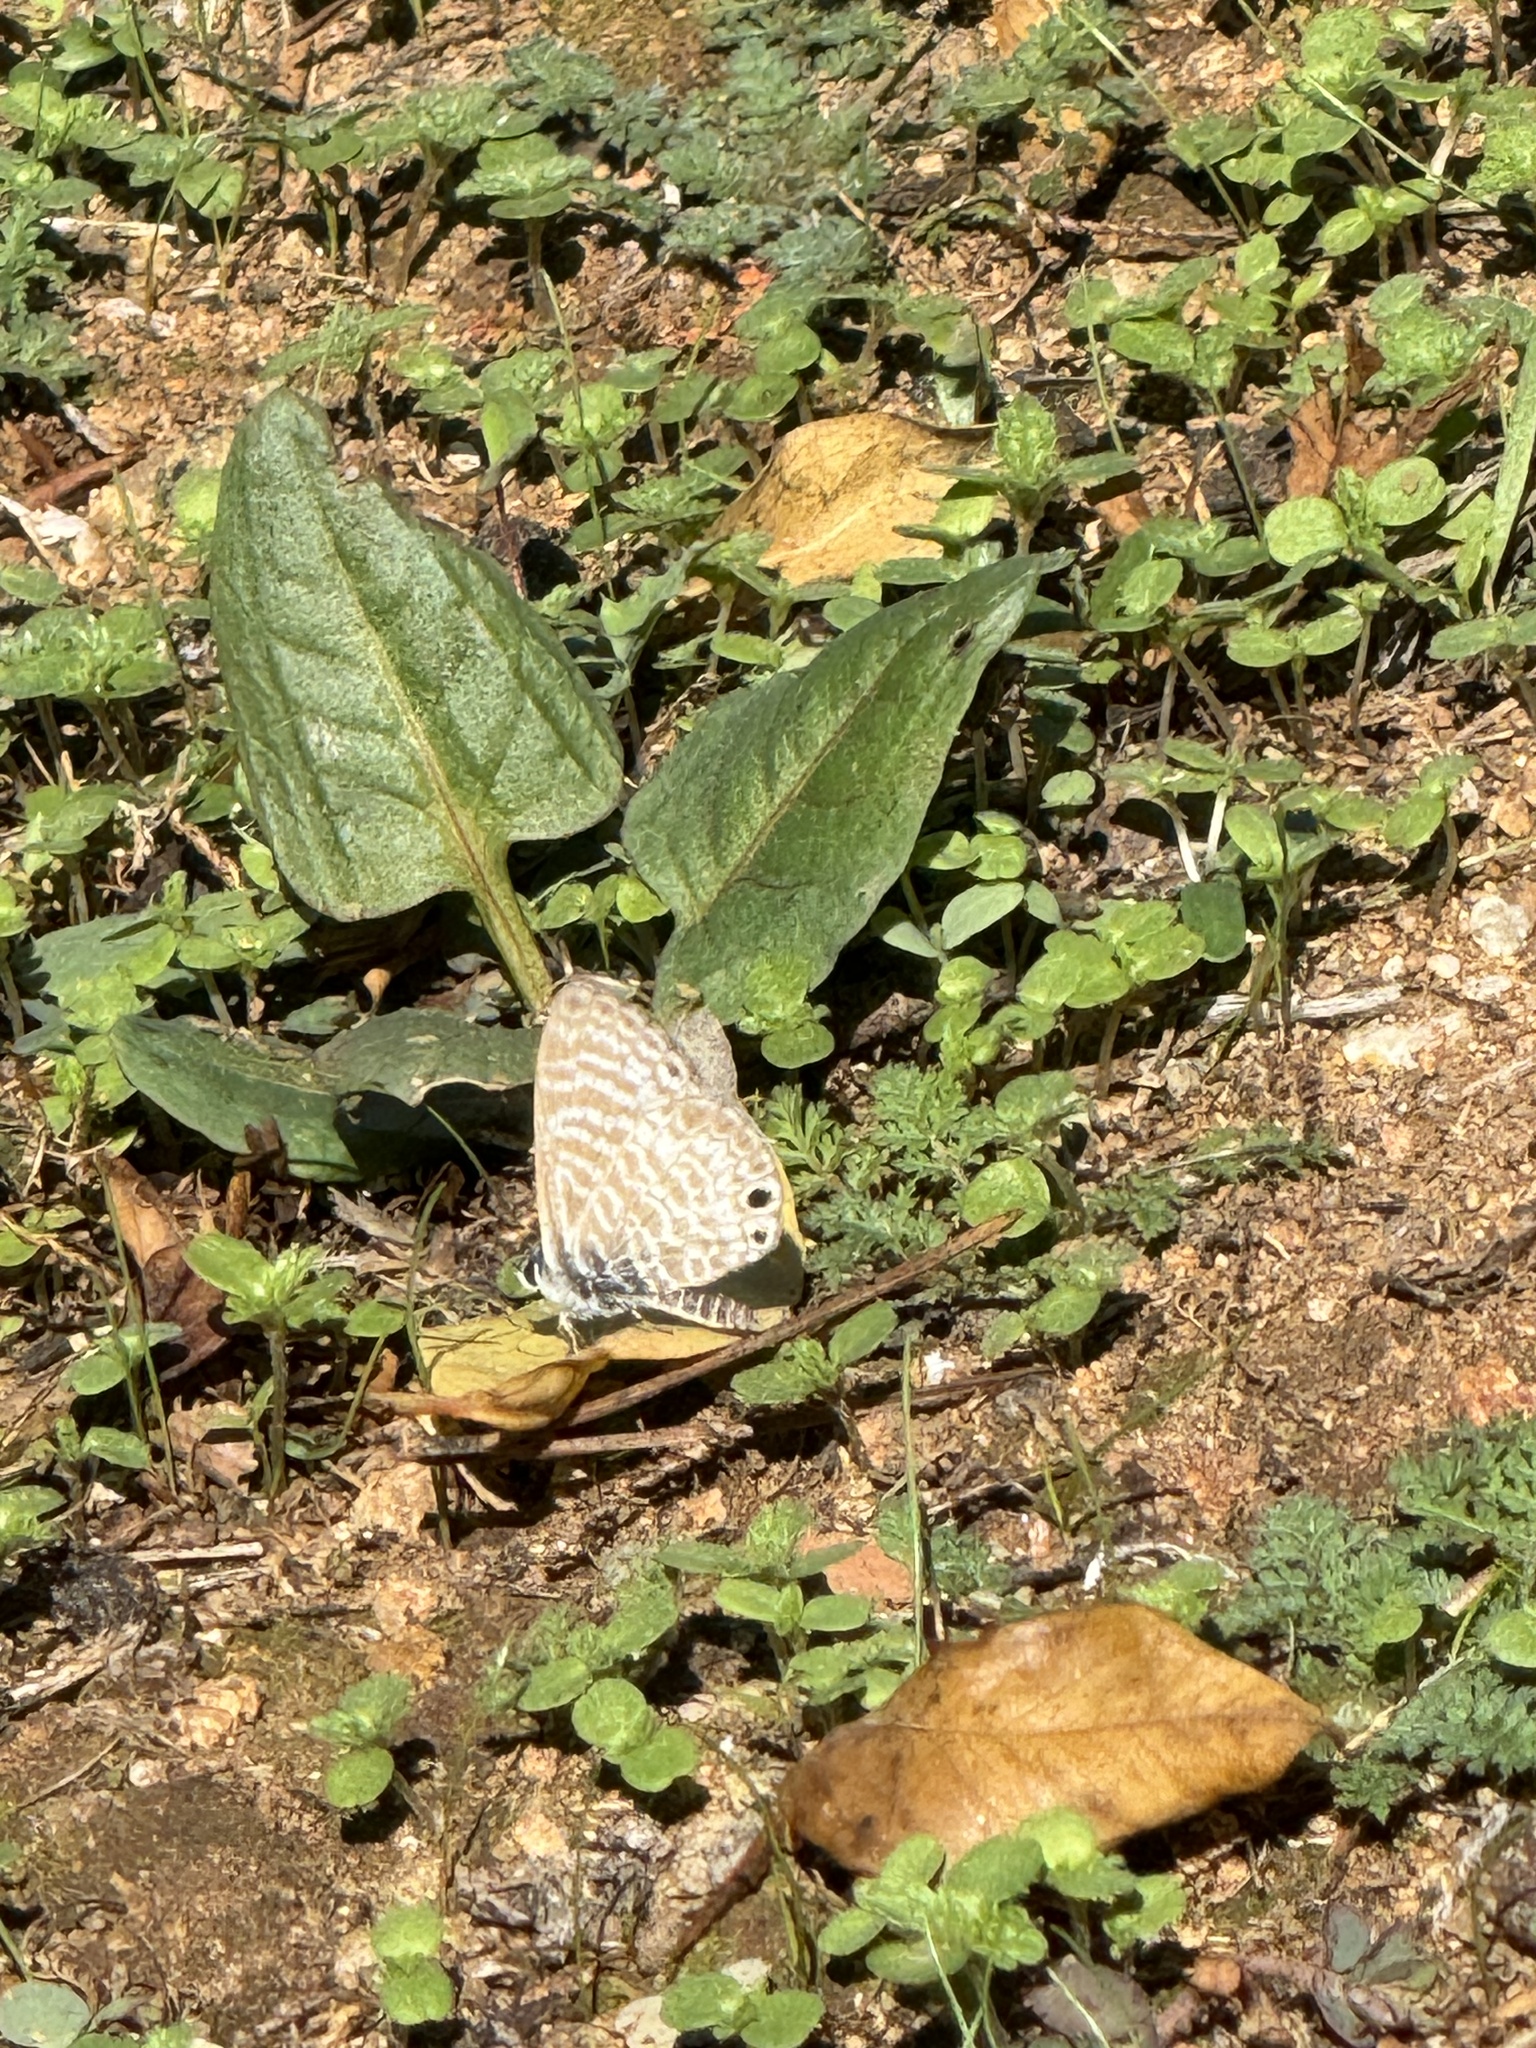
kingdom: Animalia
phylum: Arthropoda
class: Insecta
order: Lepidoptera
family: Lycaenidae
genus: Leptotes
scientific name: Leptotes marina
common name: Marine blue
